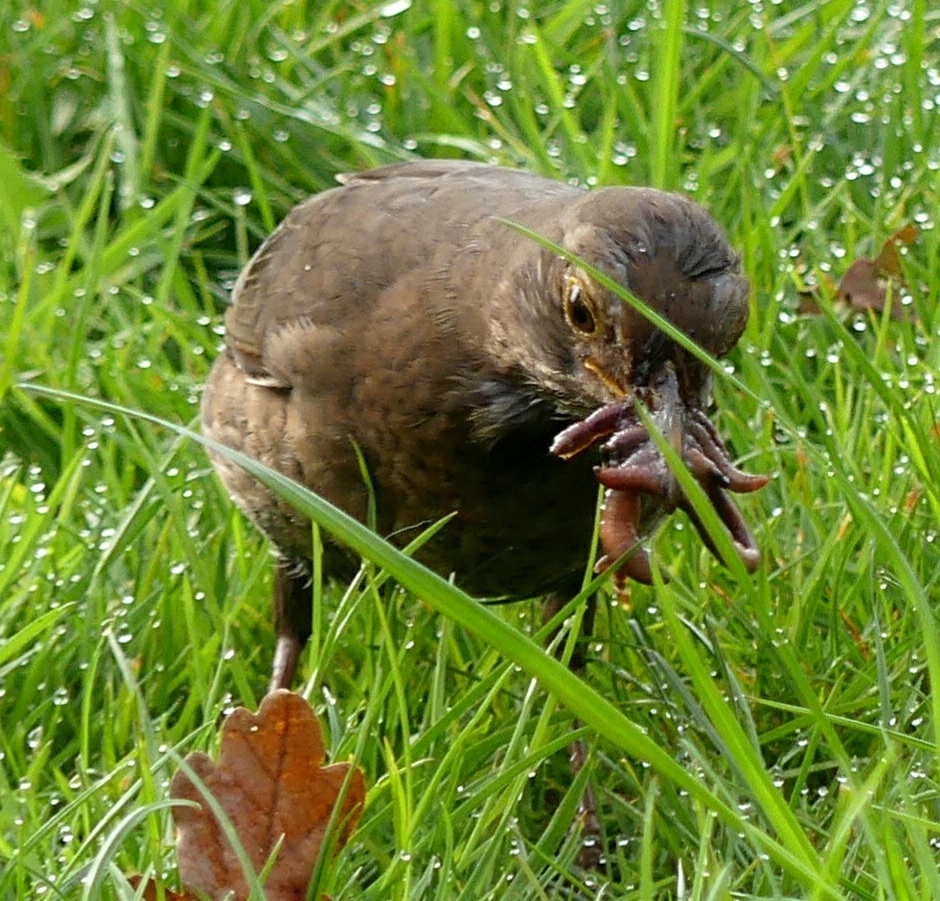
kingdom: Animalia
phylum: Chordata
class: Aves
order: Passeriformes
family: Turdidae
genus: Turdus
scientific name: Turdus merula
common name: Common blackbird
